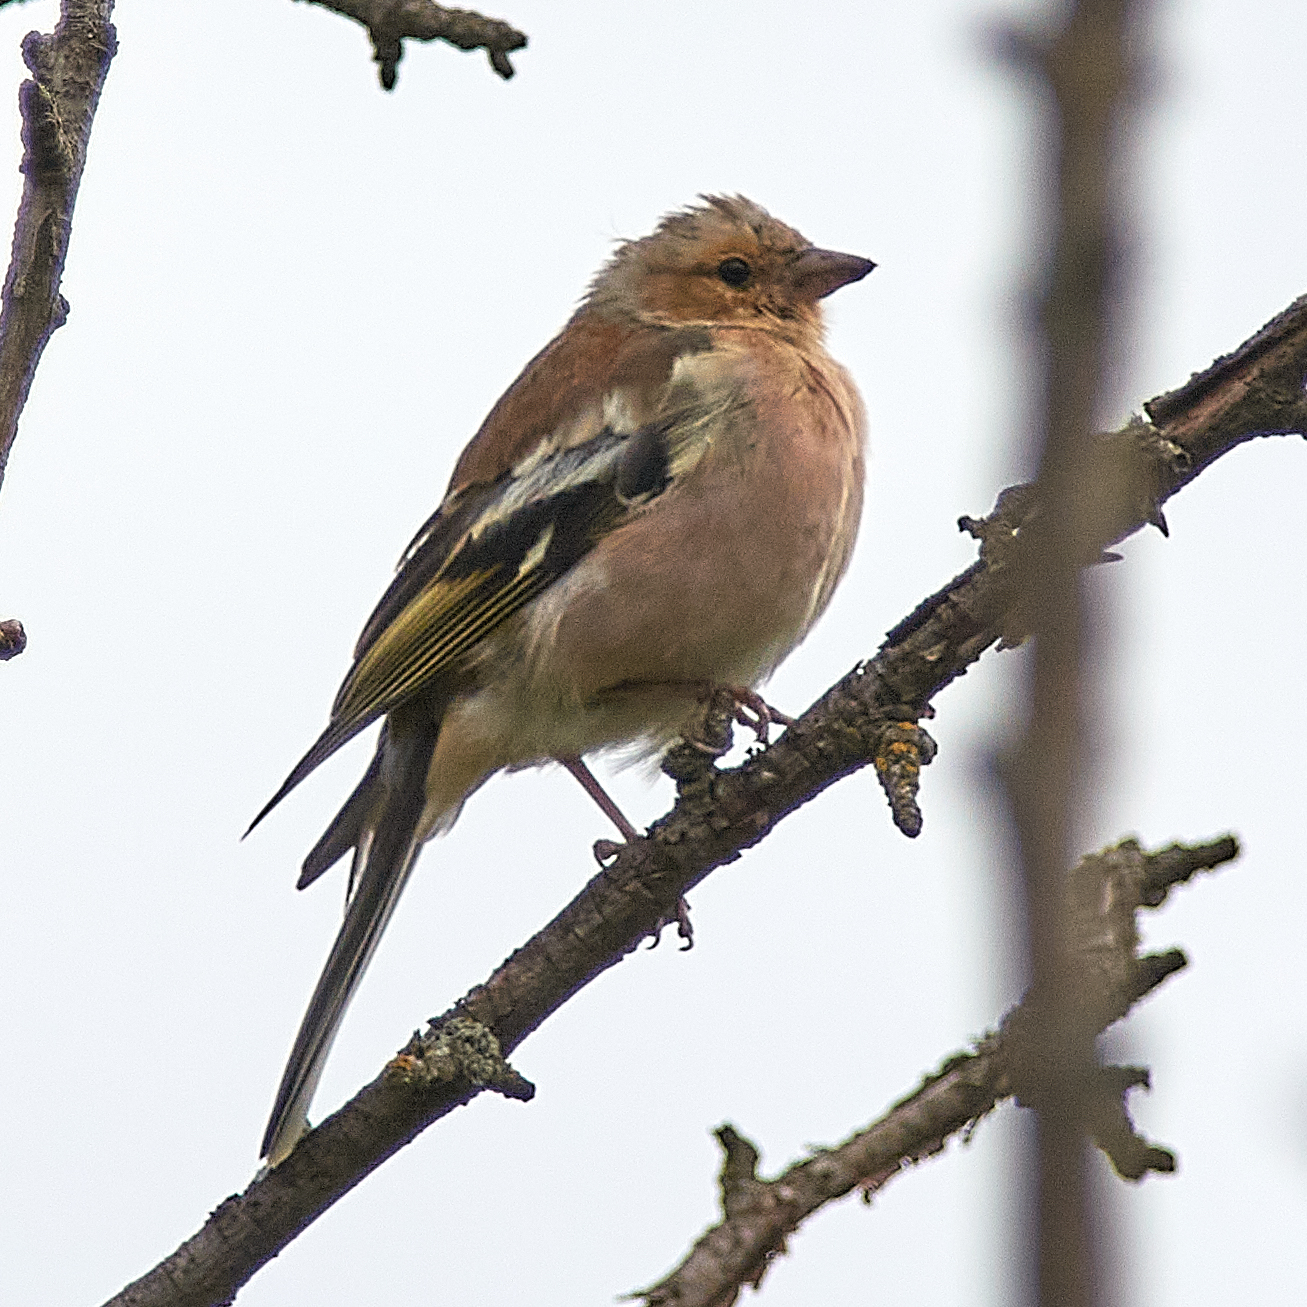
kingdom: Animalia
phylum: Chordata
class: Aves
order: Passeriformes
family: Fringillidae
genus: Fringilla
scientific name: Fringilla coelebs
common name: Common chaffinch
